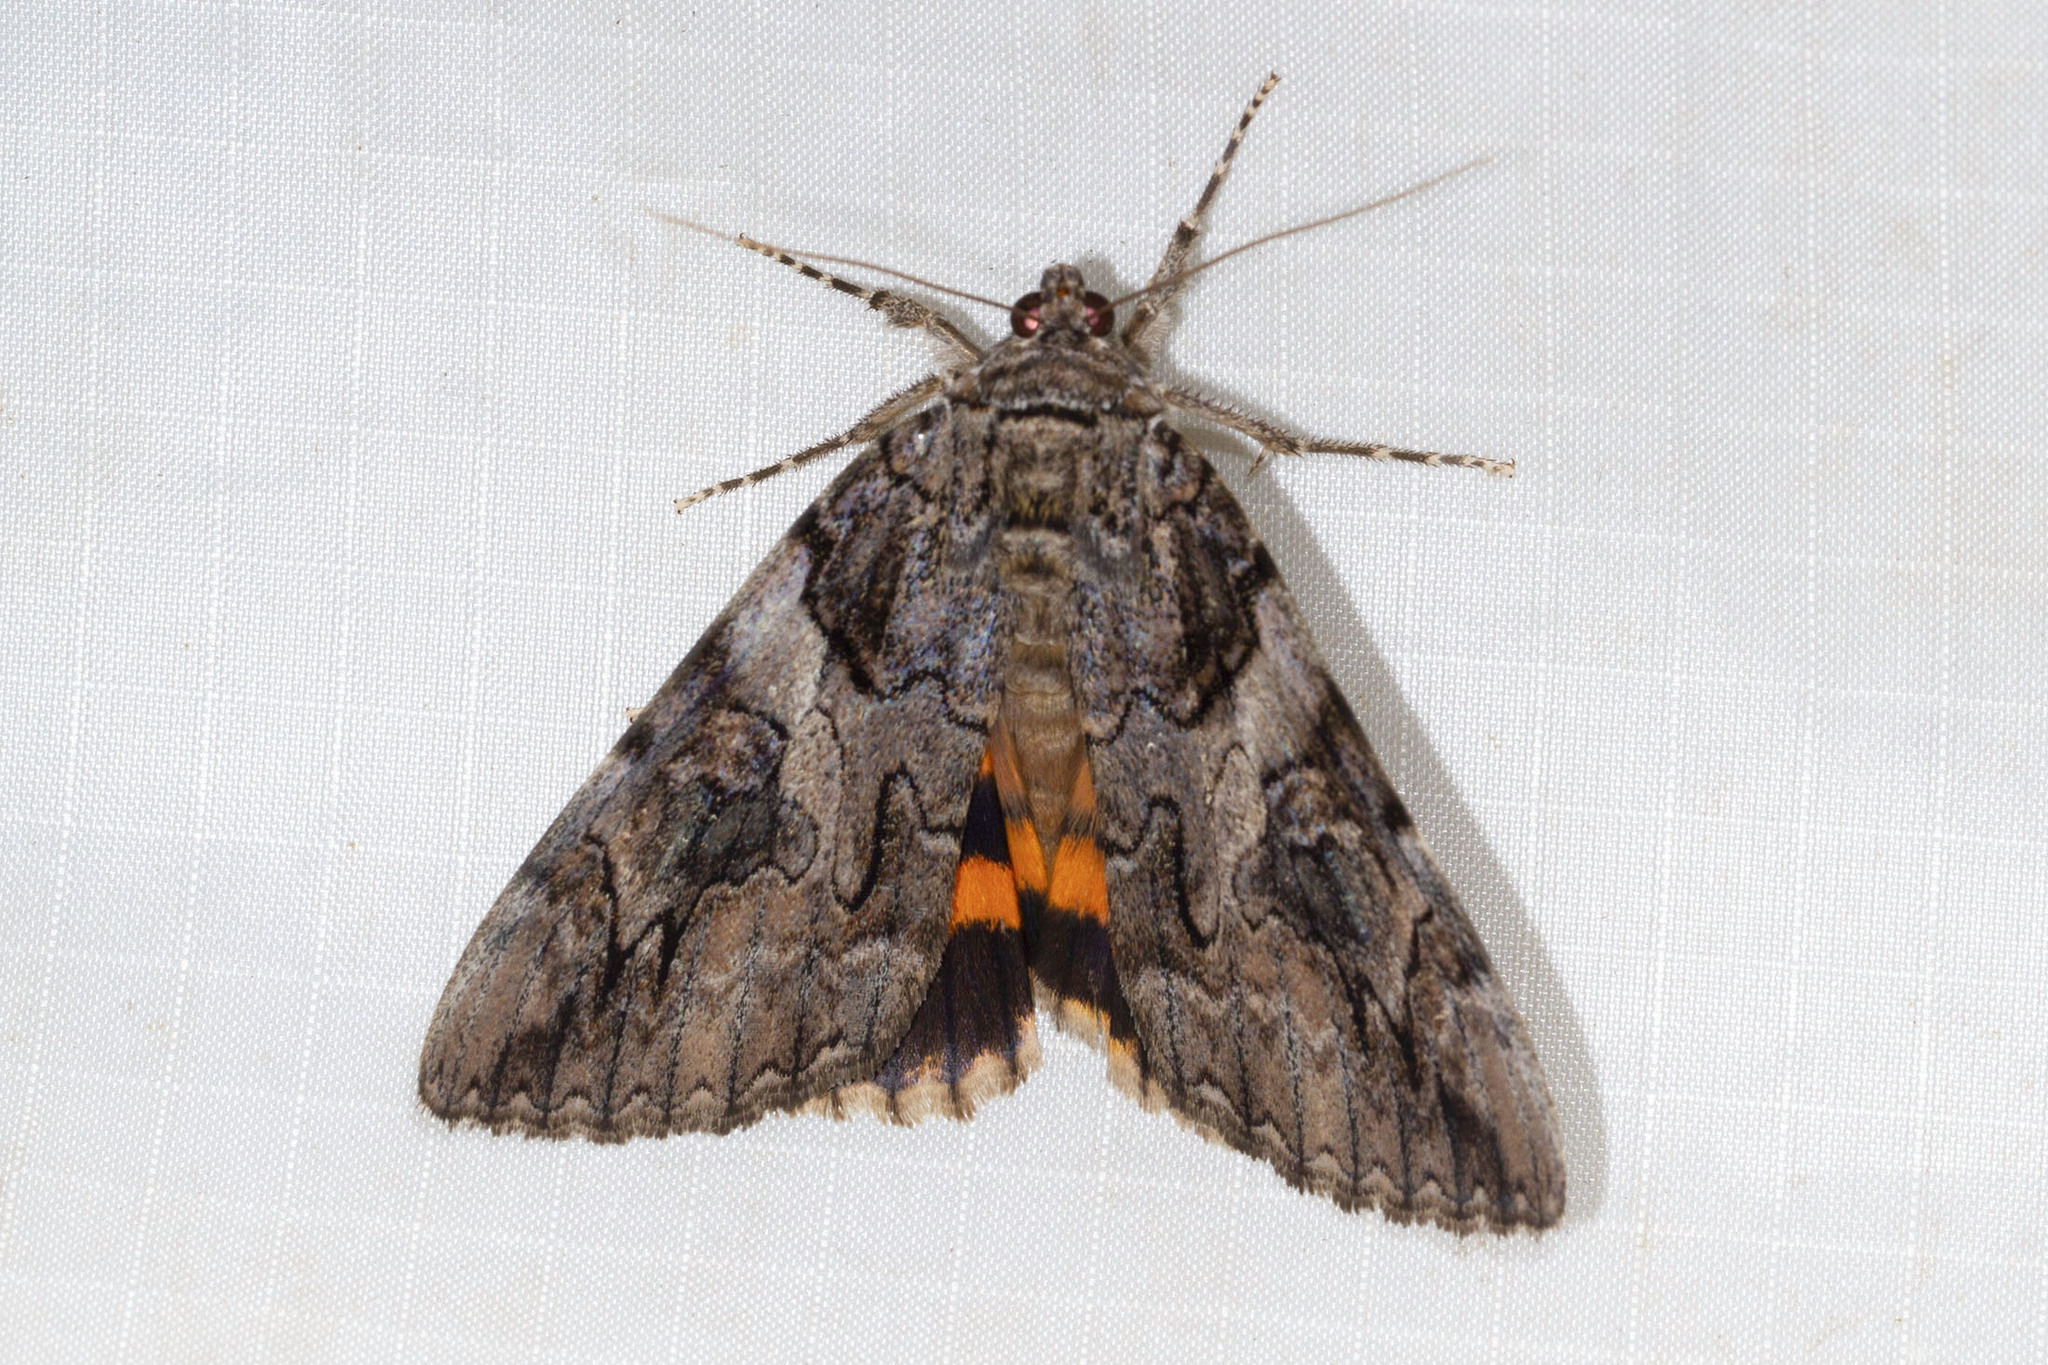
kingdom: Animalia
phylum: Arthropoda
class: Insecta
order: Lepidoptera
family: Erebidae
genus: Catocala
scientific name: Catocala piatrix
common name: The penitent underwing
